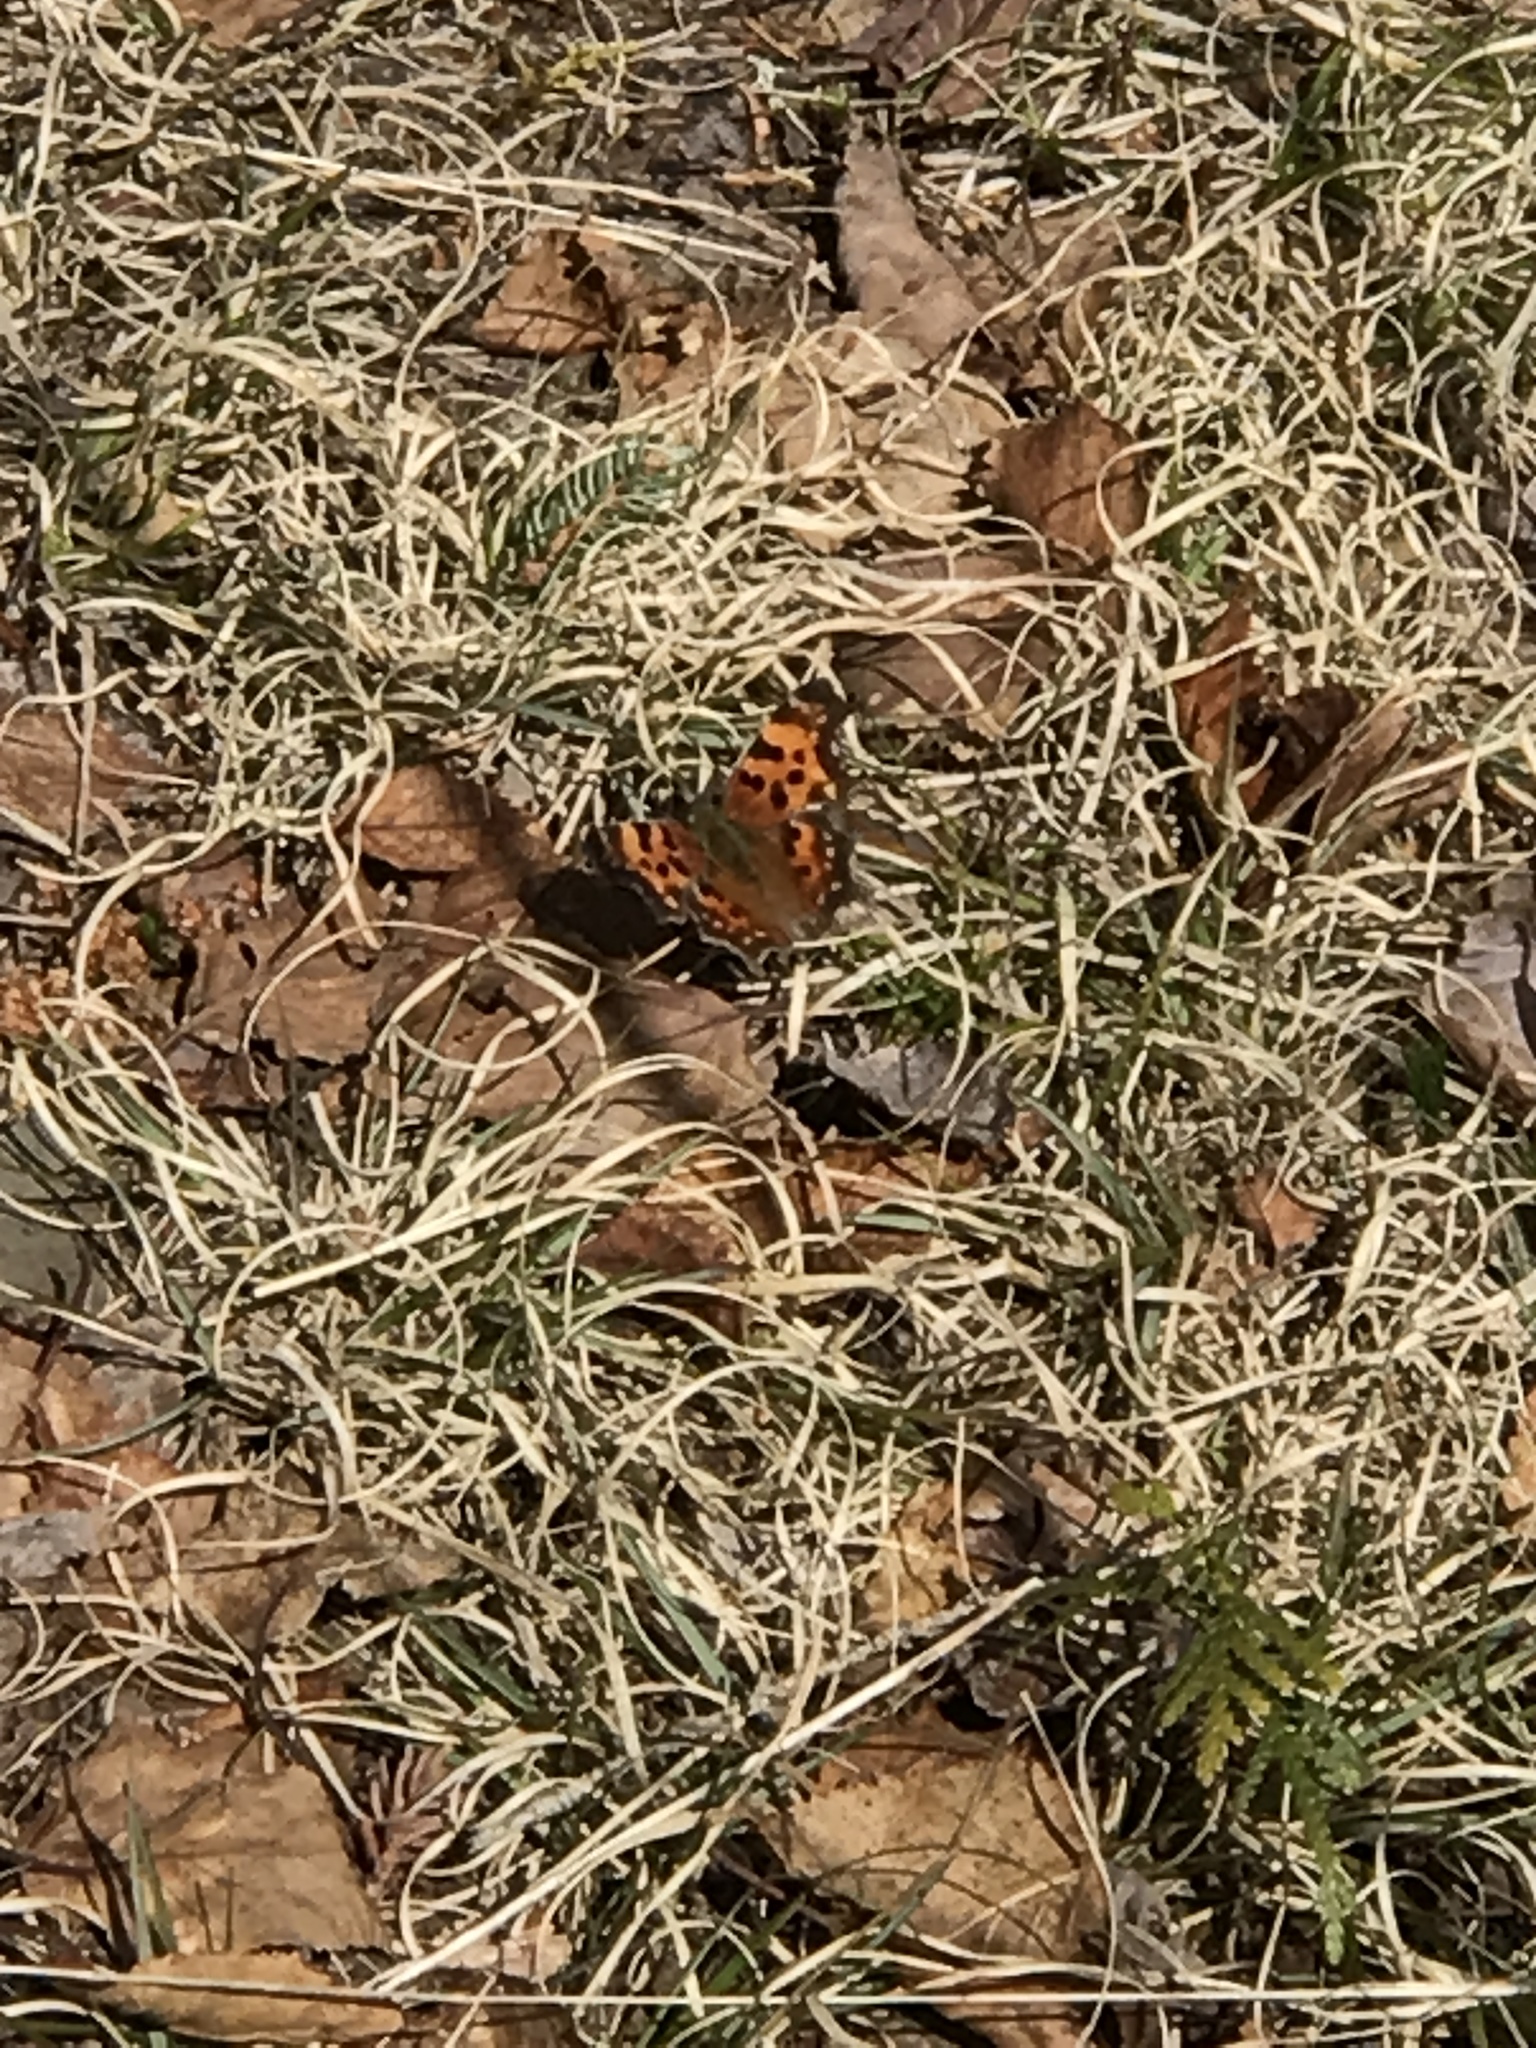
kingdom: Animalia
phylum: Arthropoda
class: Insecta
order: Lepidoptera
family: Nymphalidae
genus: Polygonia
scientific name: Polygonia faunus
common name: Green comma
